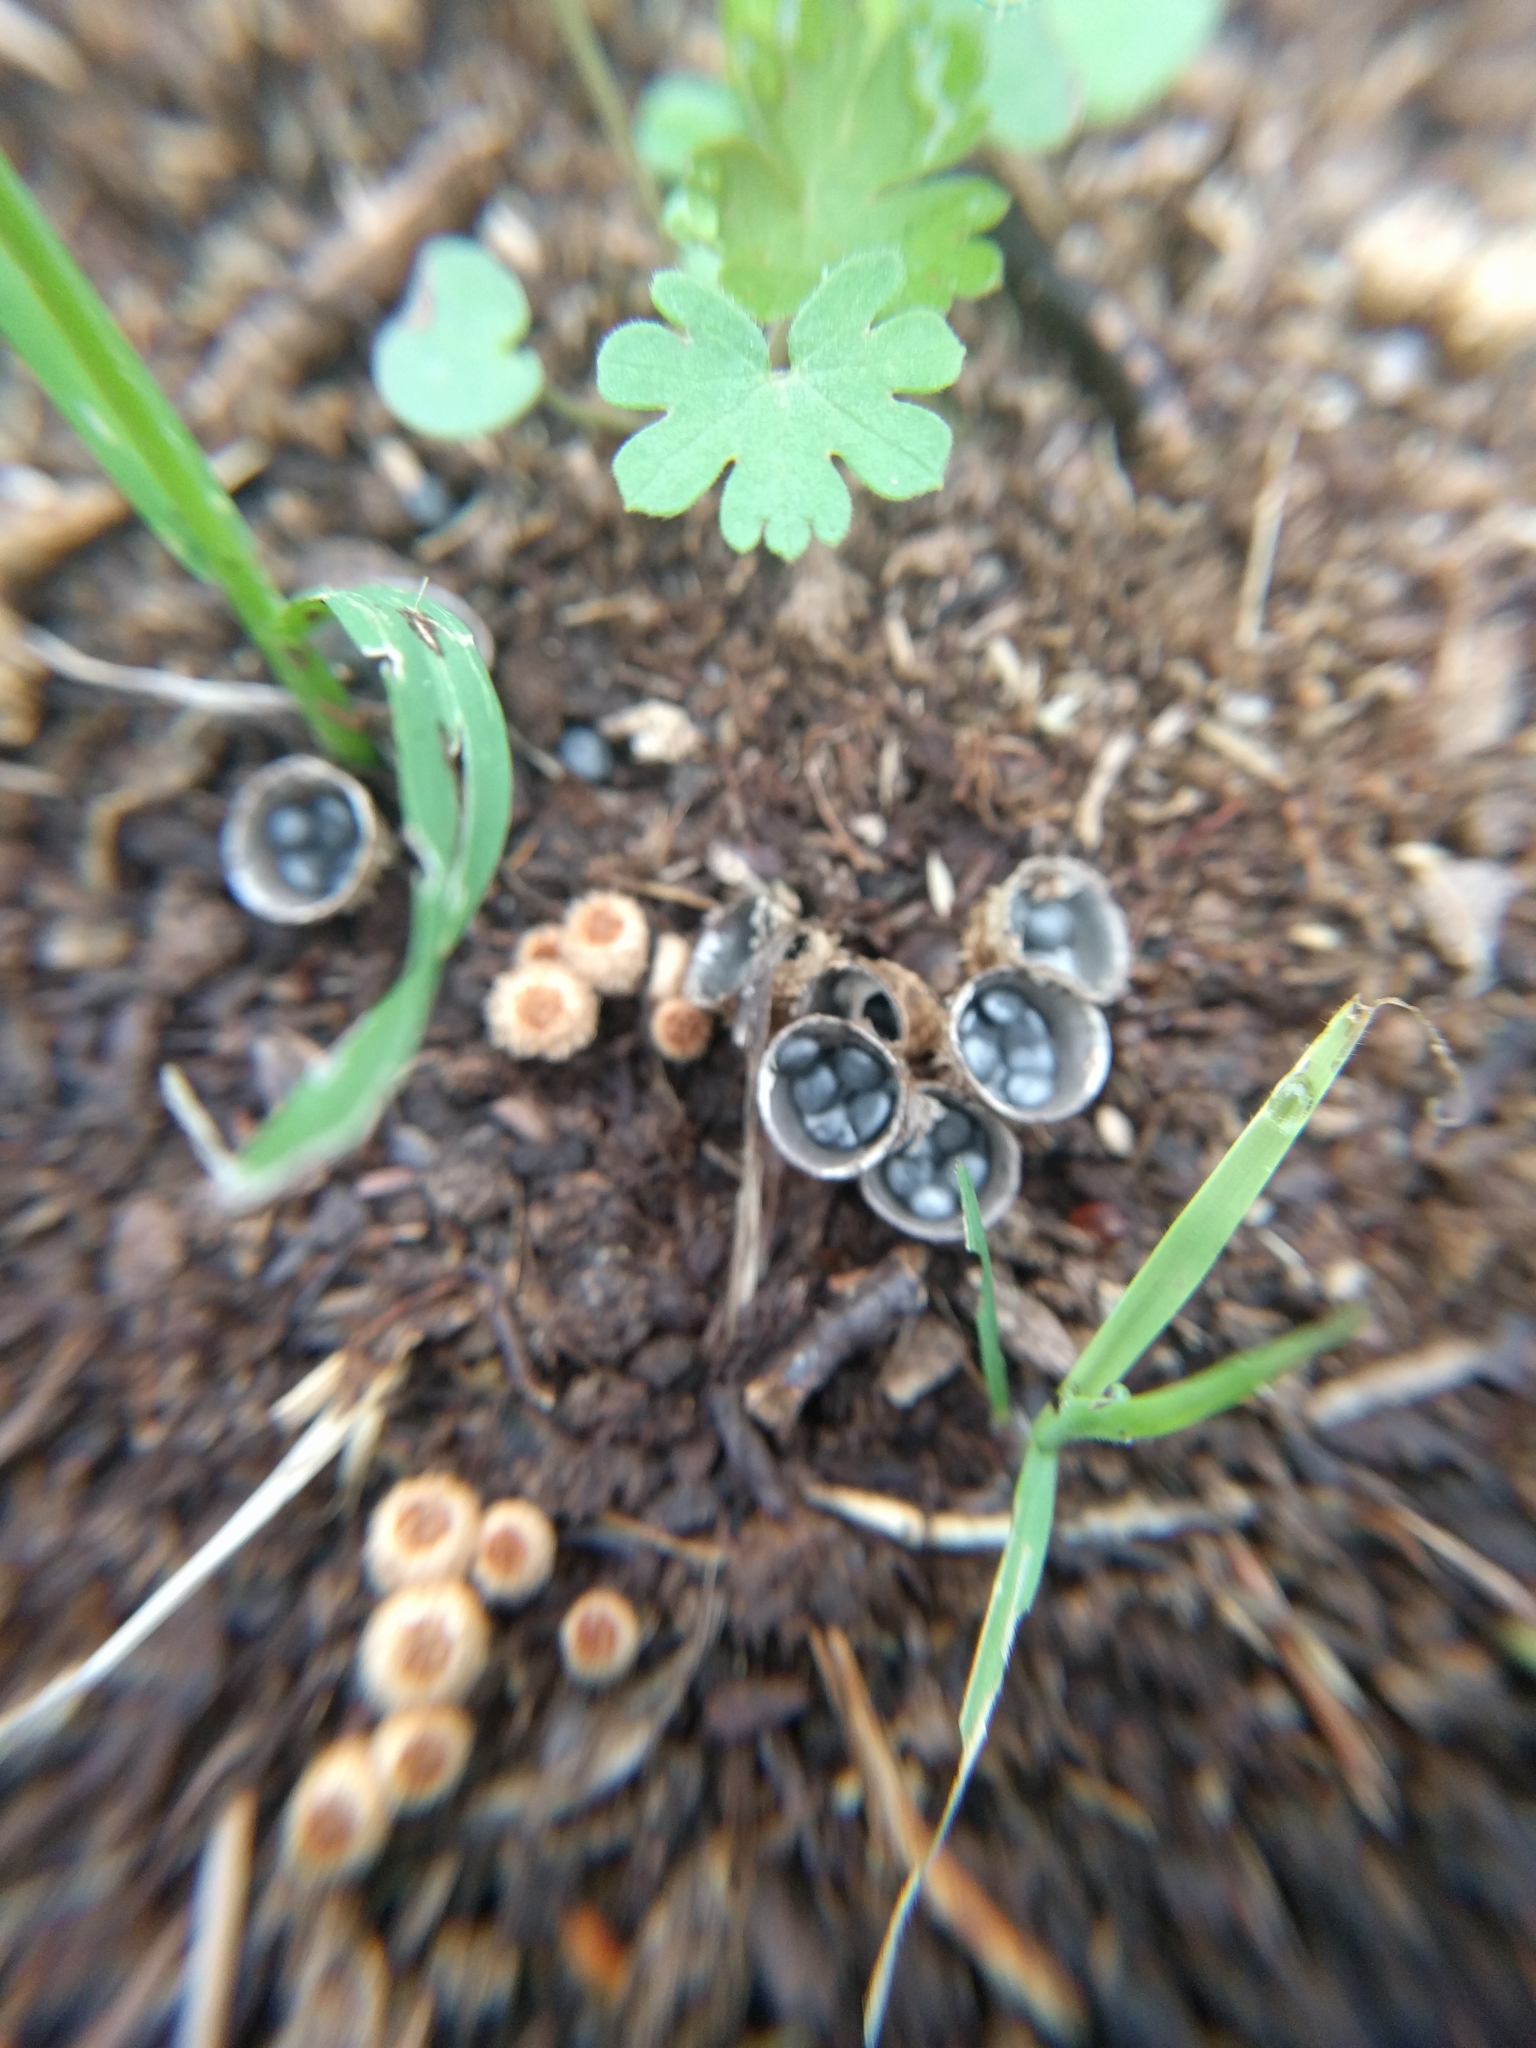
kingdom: Fungi
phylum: Basidiomycota
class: Agaricomycetes
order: Agaricales
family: Agaricaceae
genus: Cyathus
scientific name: Cyathus stercoreus
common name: Dung bird's nest
